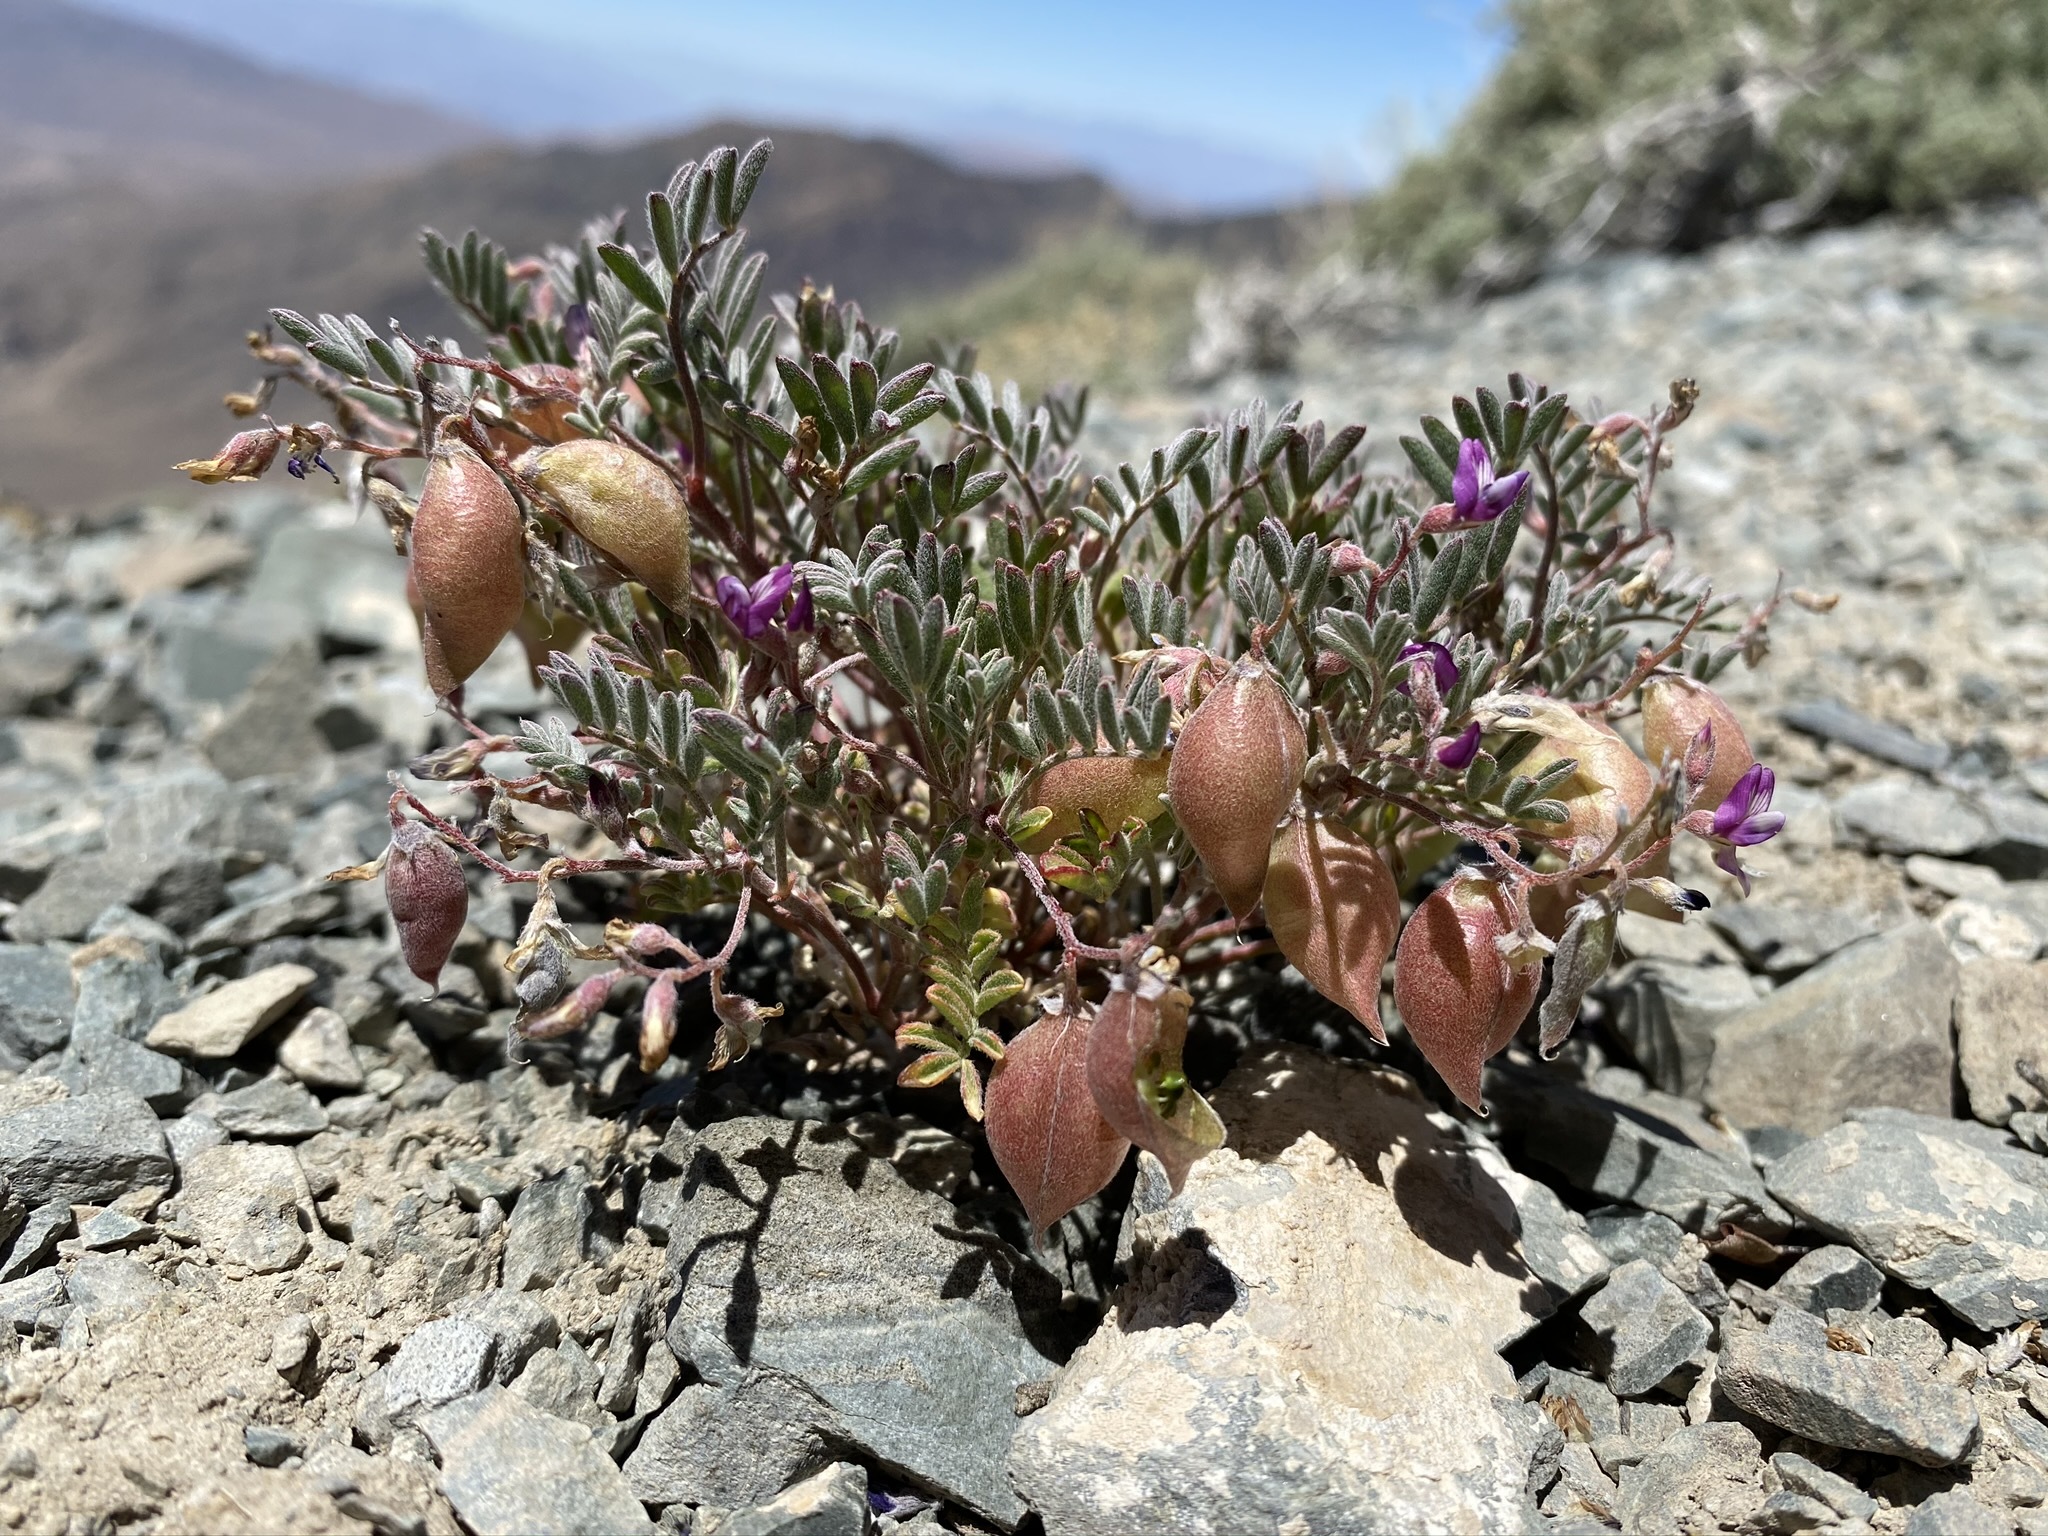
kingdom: Plantae
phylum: Tracheophyta
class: Magnoliopsida
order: Fabales
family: Fabaceae
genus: Astragalus
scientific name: Astragalus gilmanii
